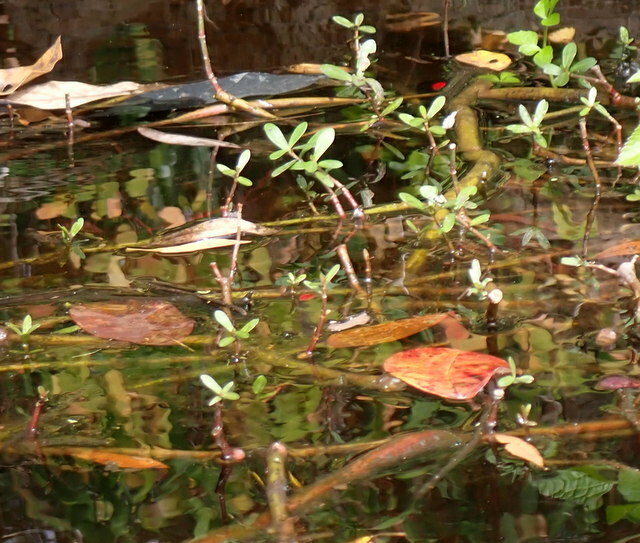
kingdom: Plantae
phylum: Tracheophyta
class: Magnoliopsida
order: Caryophyllales
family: Amaranthaceae
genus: Alternanthera
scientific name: Alternanthera philoxeroides
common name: Alligatorweed
